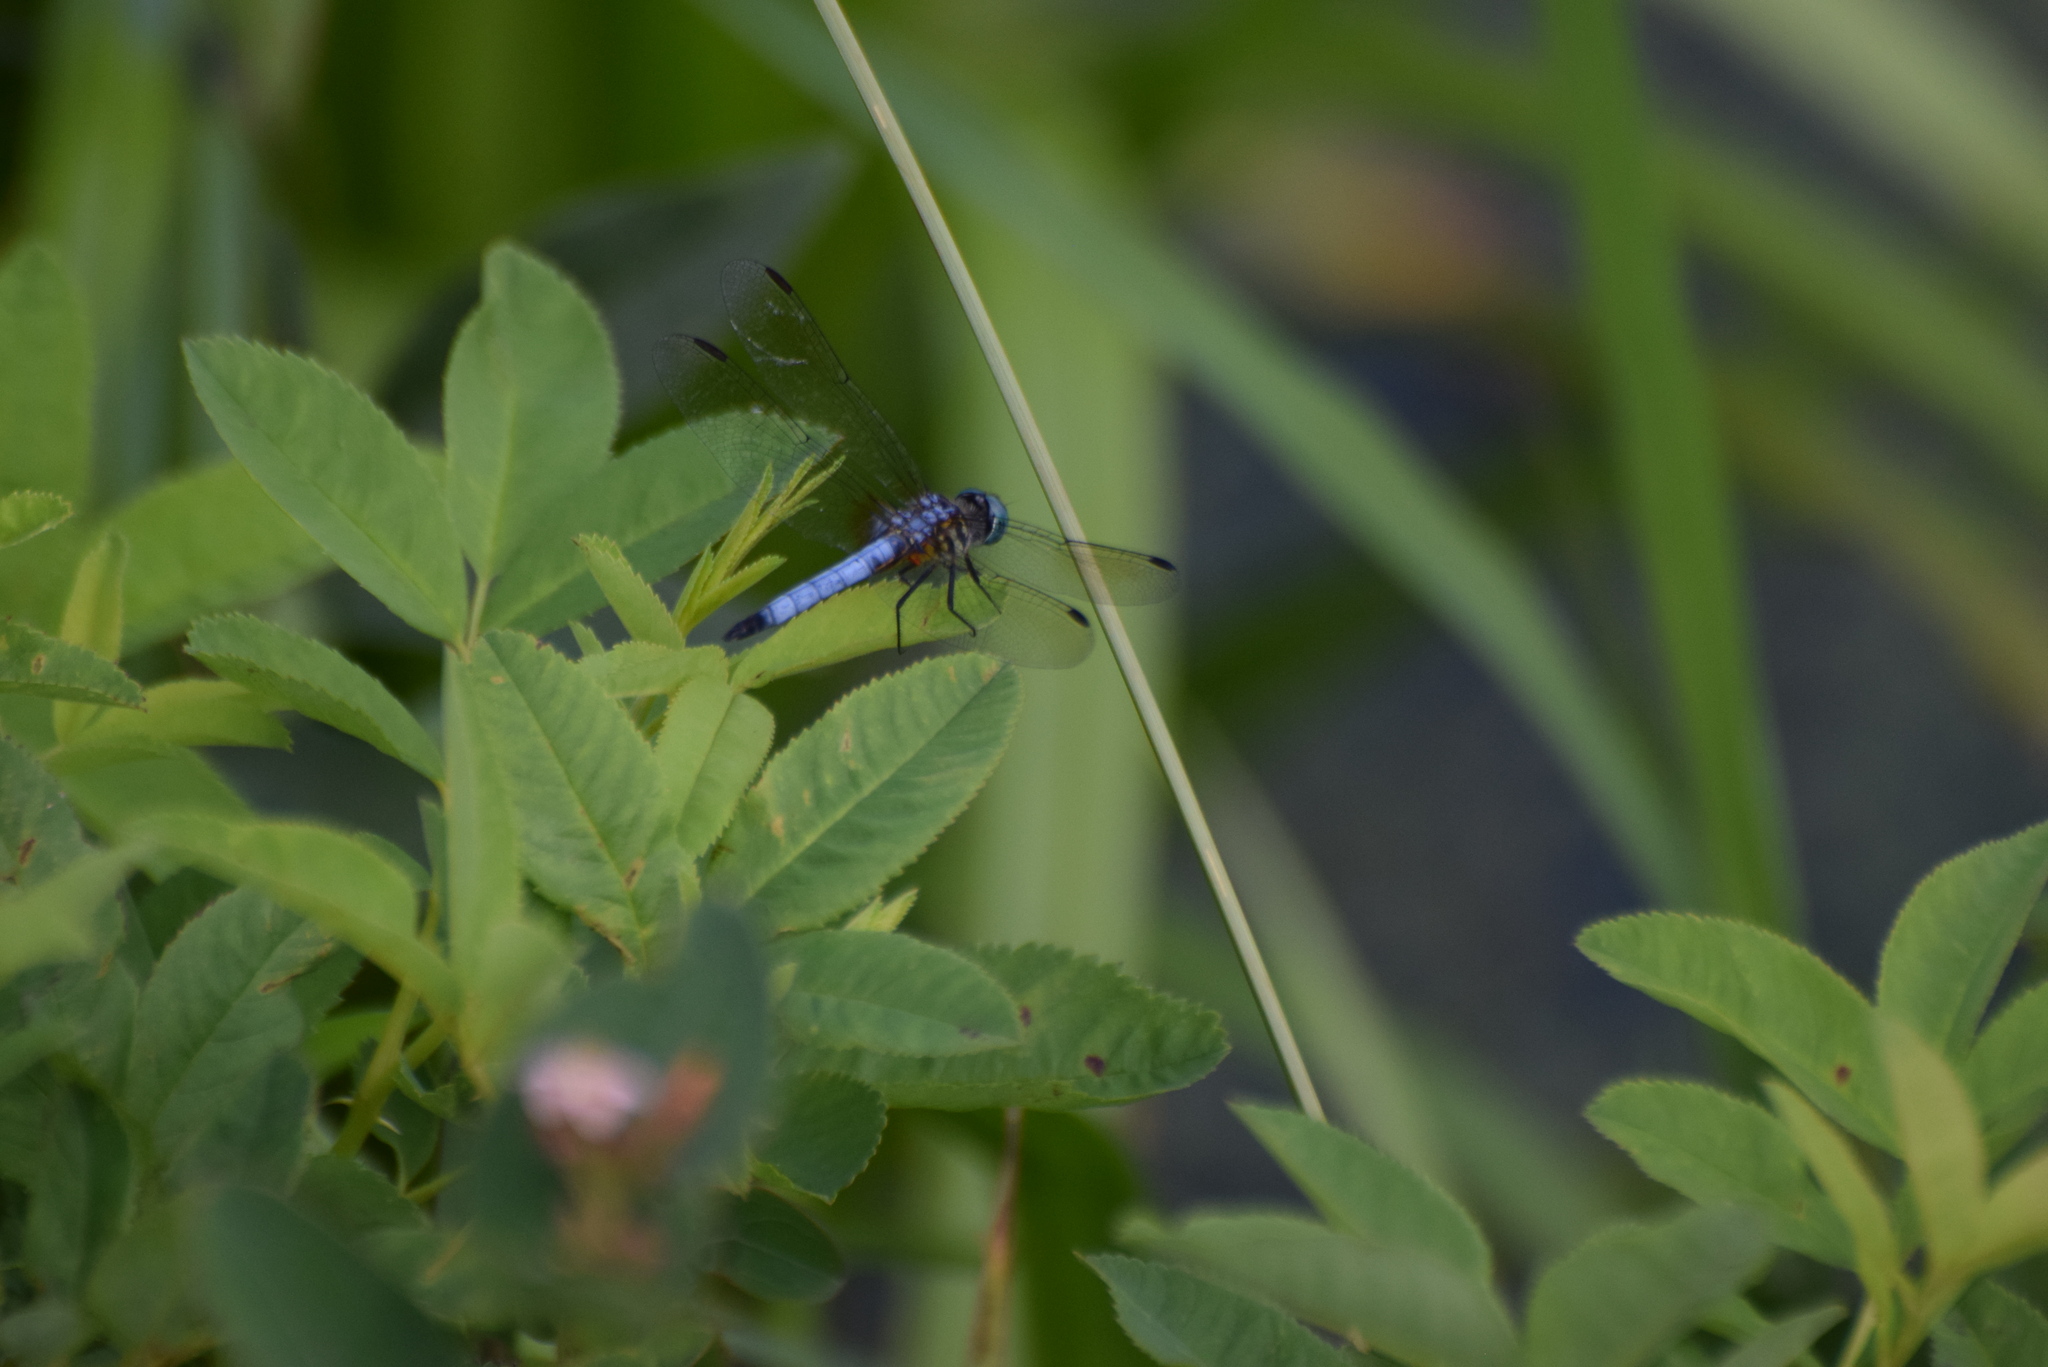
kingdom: Animalia
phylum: Arthropoda
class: Insecta
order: Odonata
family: Libellulidae
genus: Pachydiplax
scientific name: Pachydiplax longipennis
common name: Blue dasher
